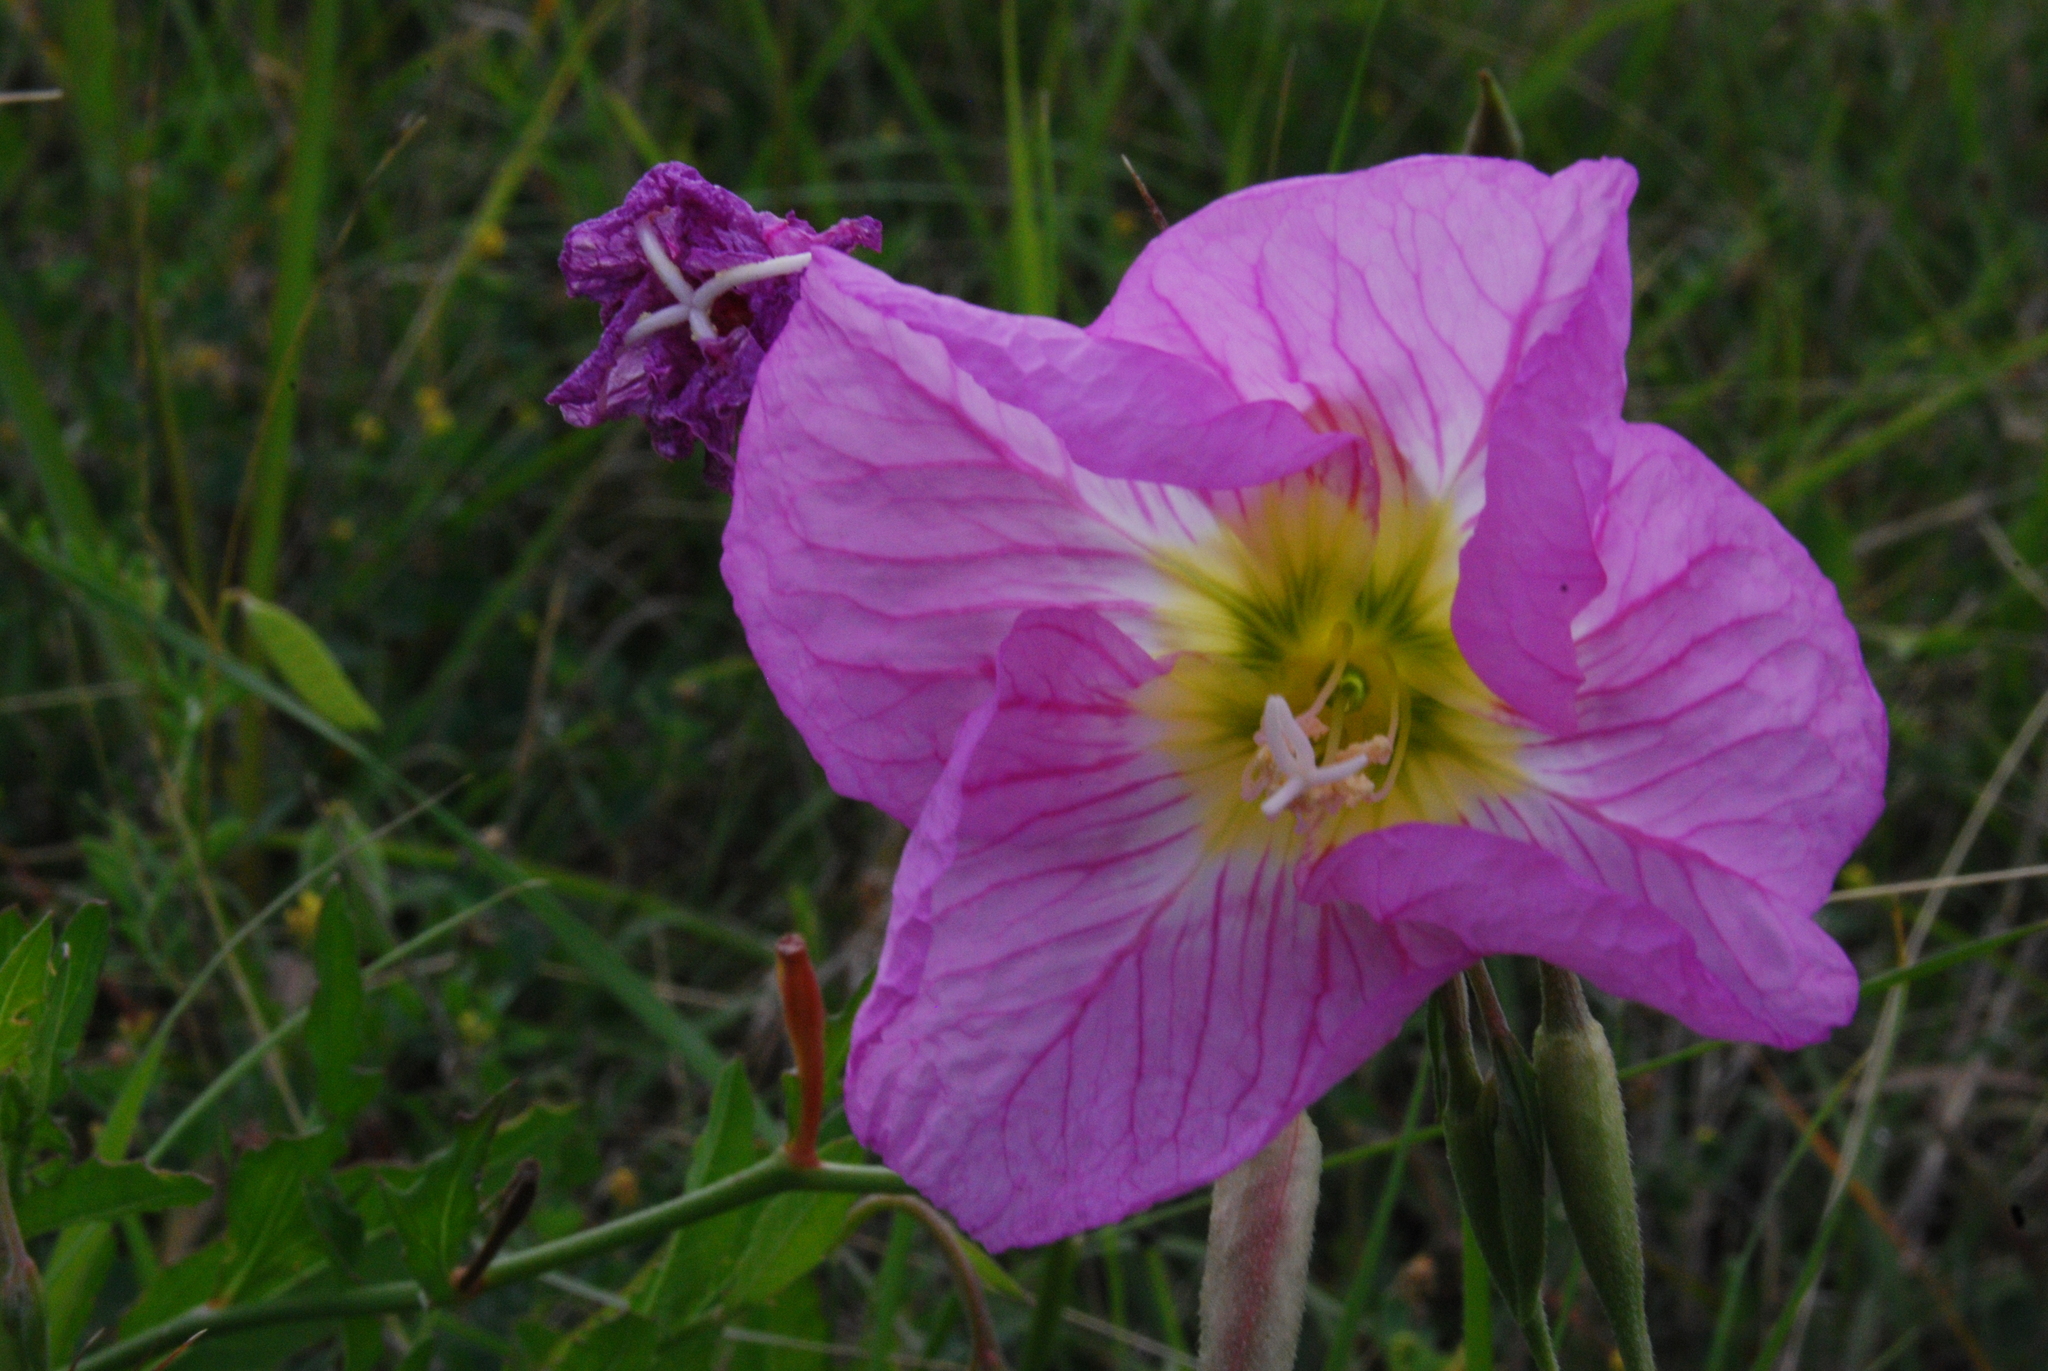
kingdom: Plantae
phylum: Tracheophyta
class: Magnoliopsida
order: Myrtales
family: Onagraceae
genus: Oenothera
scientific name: Oenothera speciosa
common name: White evening-primrose
